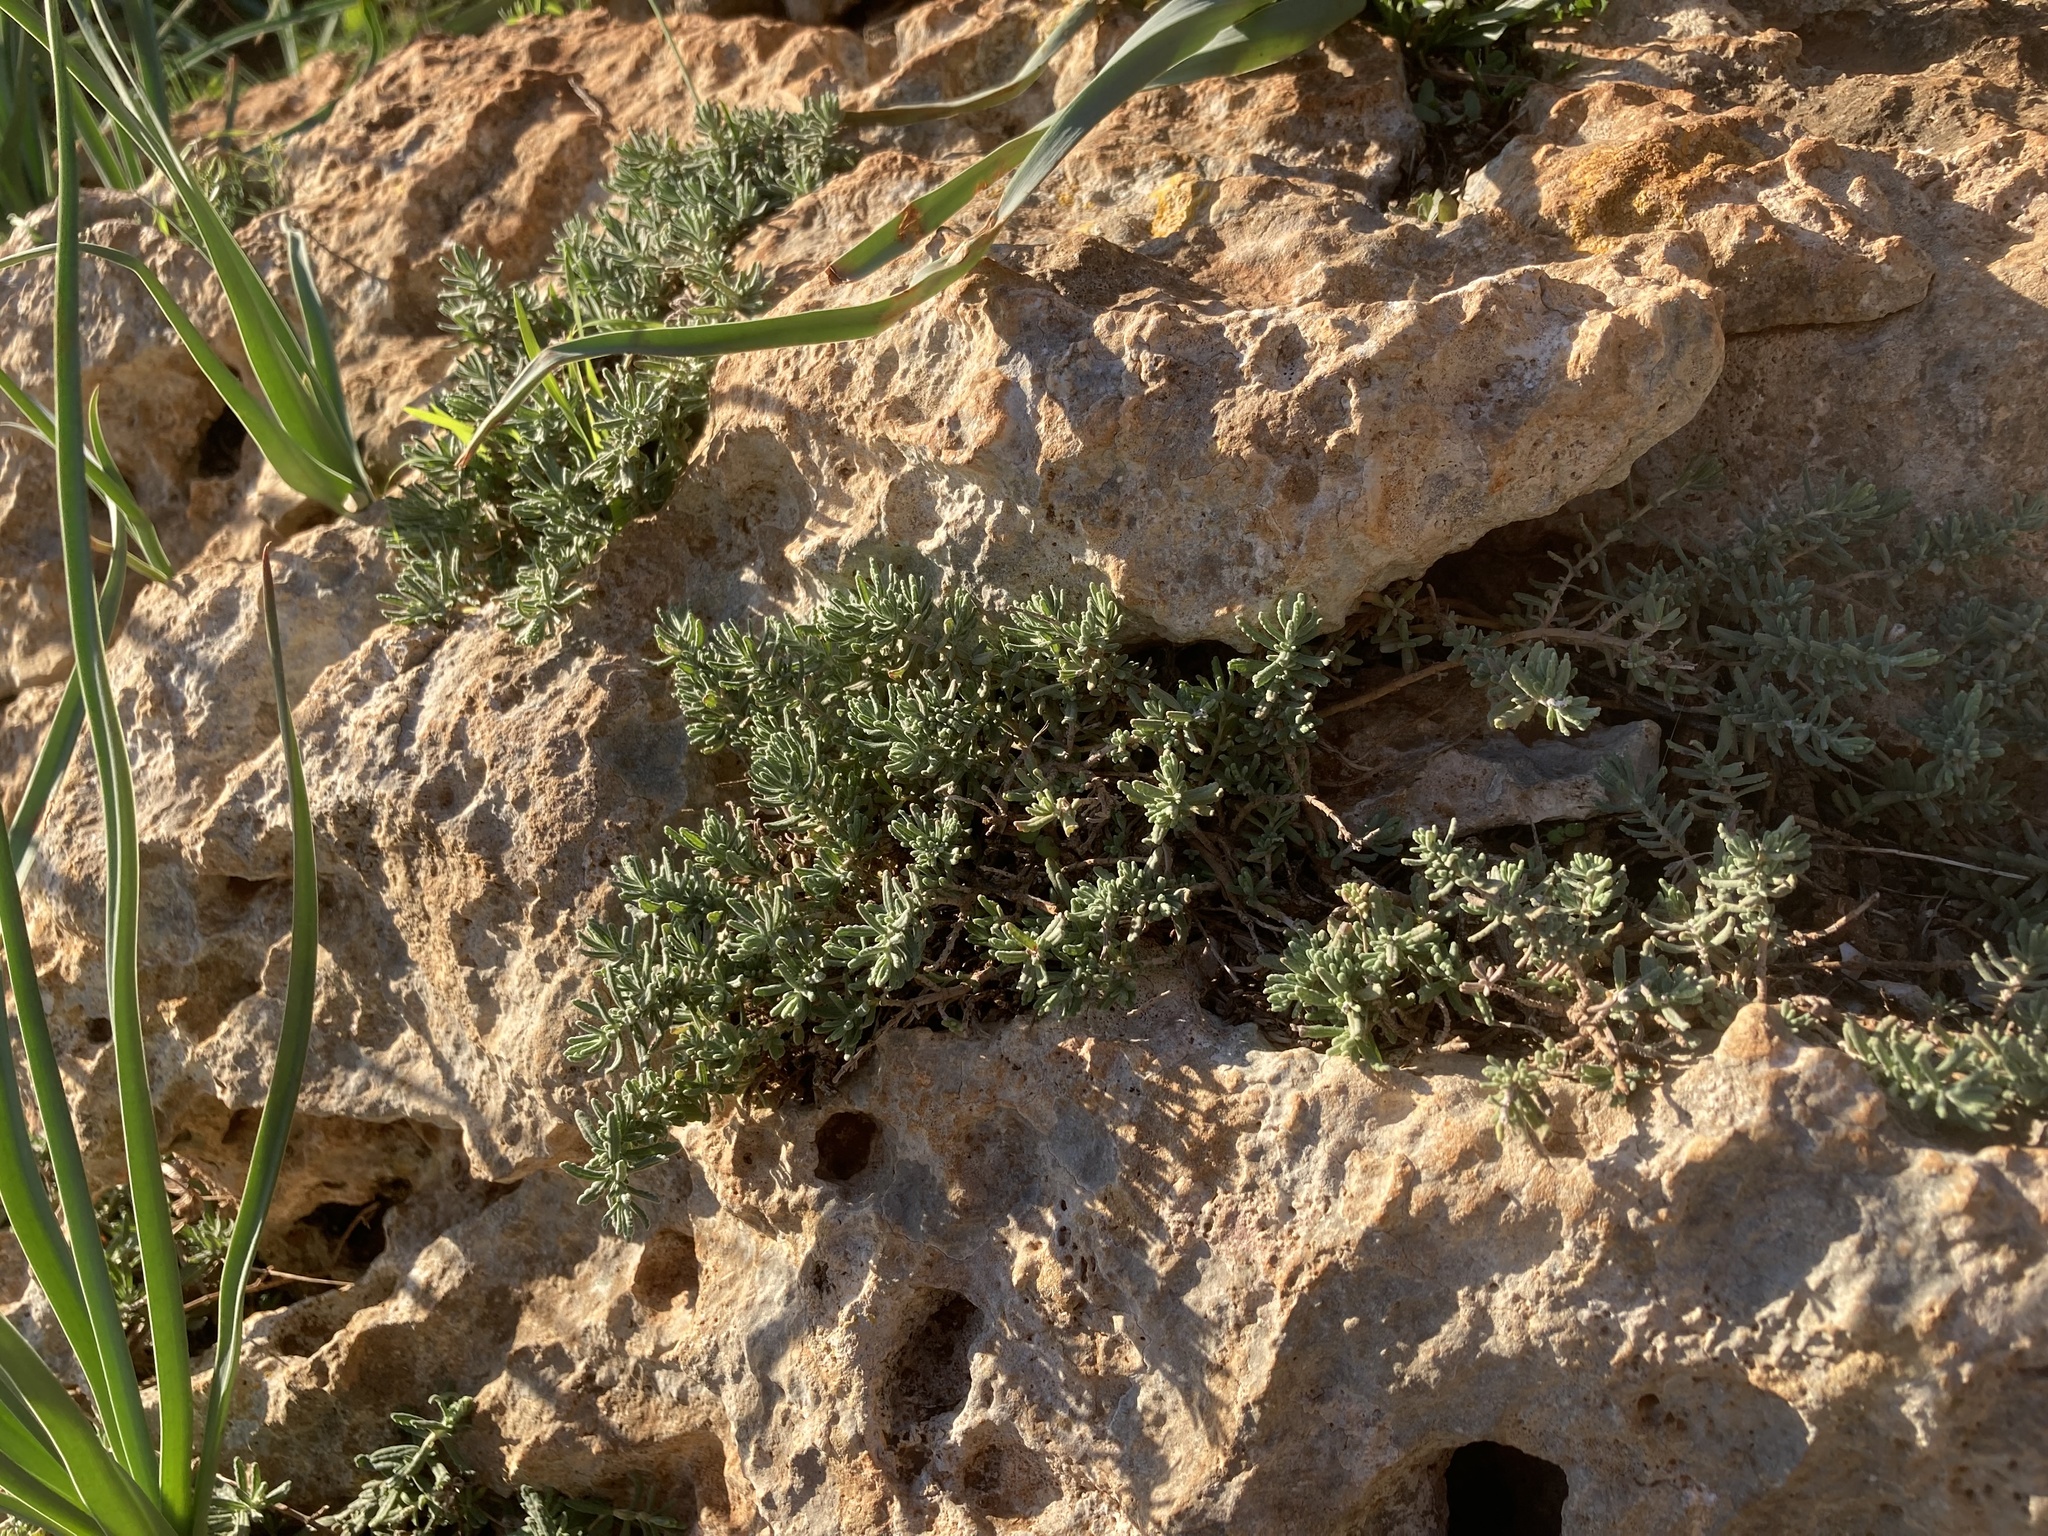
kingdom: Plantae
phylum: Tracheophyta
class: Magnoliopsida
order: Lamiales
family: Lamiaceae
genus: Teucrium
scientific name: Teucrium dunense
